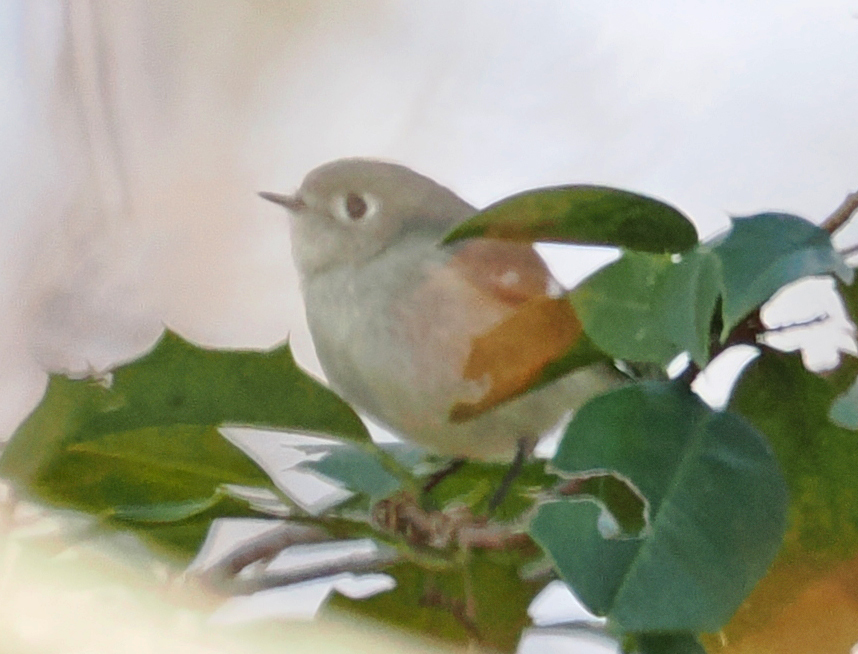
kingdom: Animalia
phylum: Chordata
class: Aves
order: Passeriformes
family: Regulidae
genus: Regulus
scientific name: Regulus calendula
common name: Ruby-crowned kinglet
